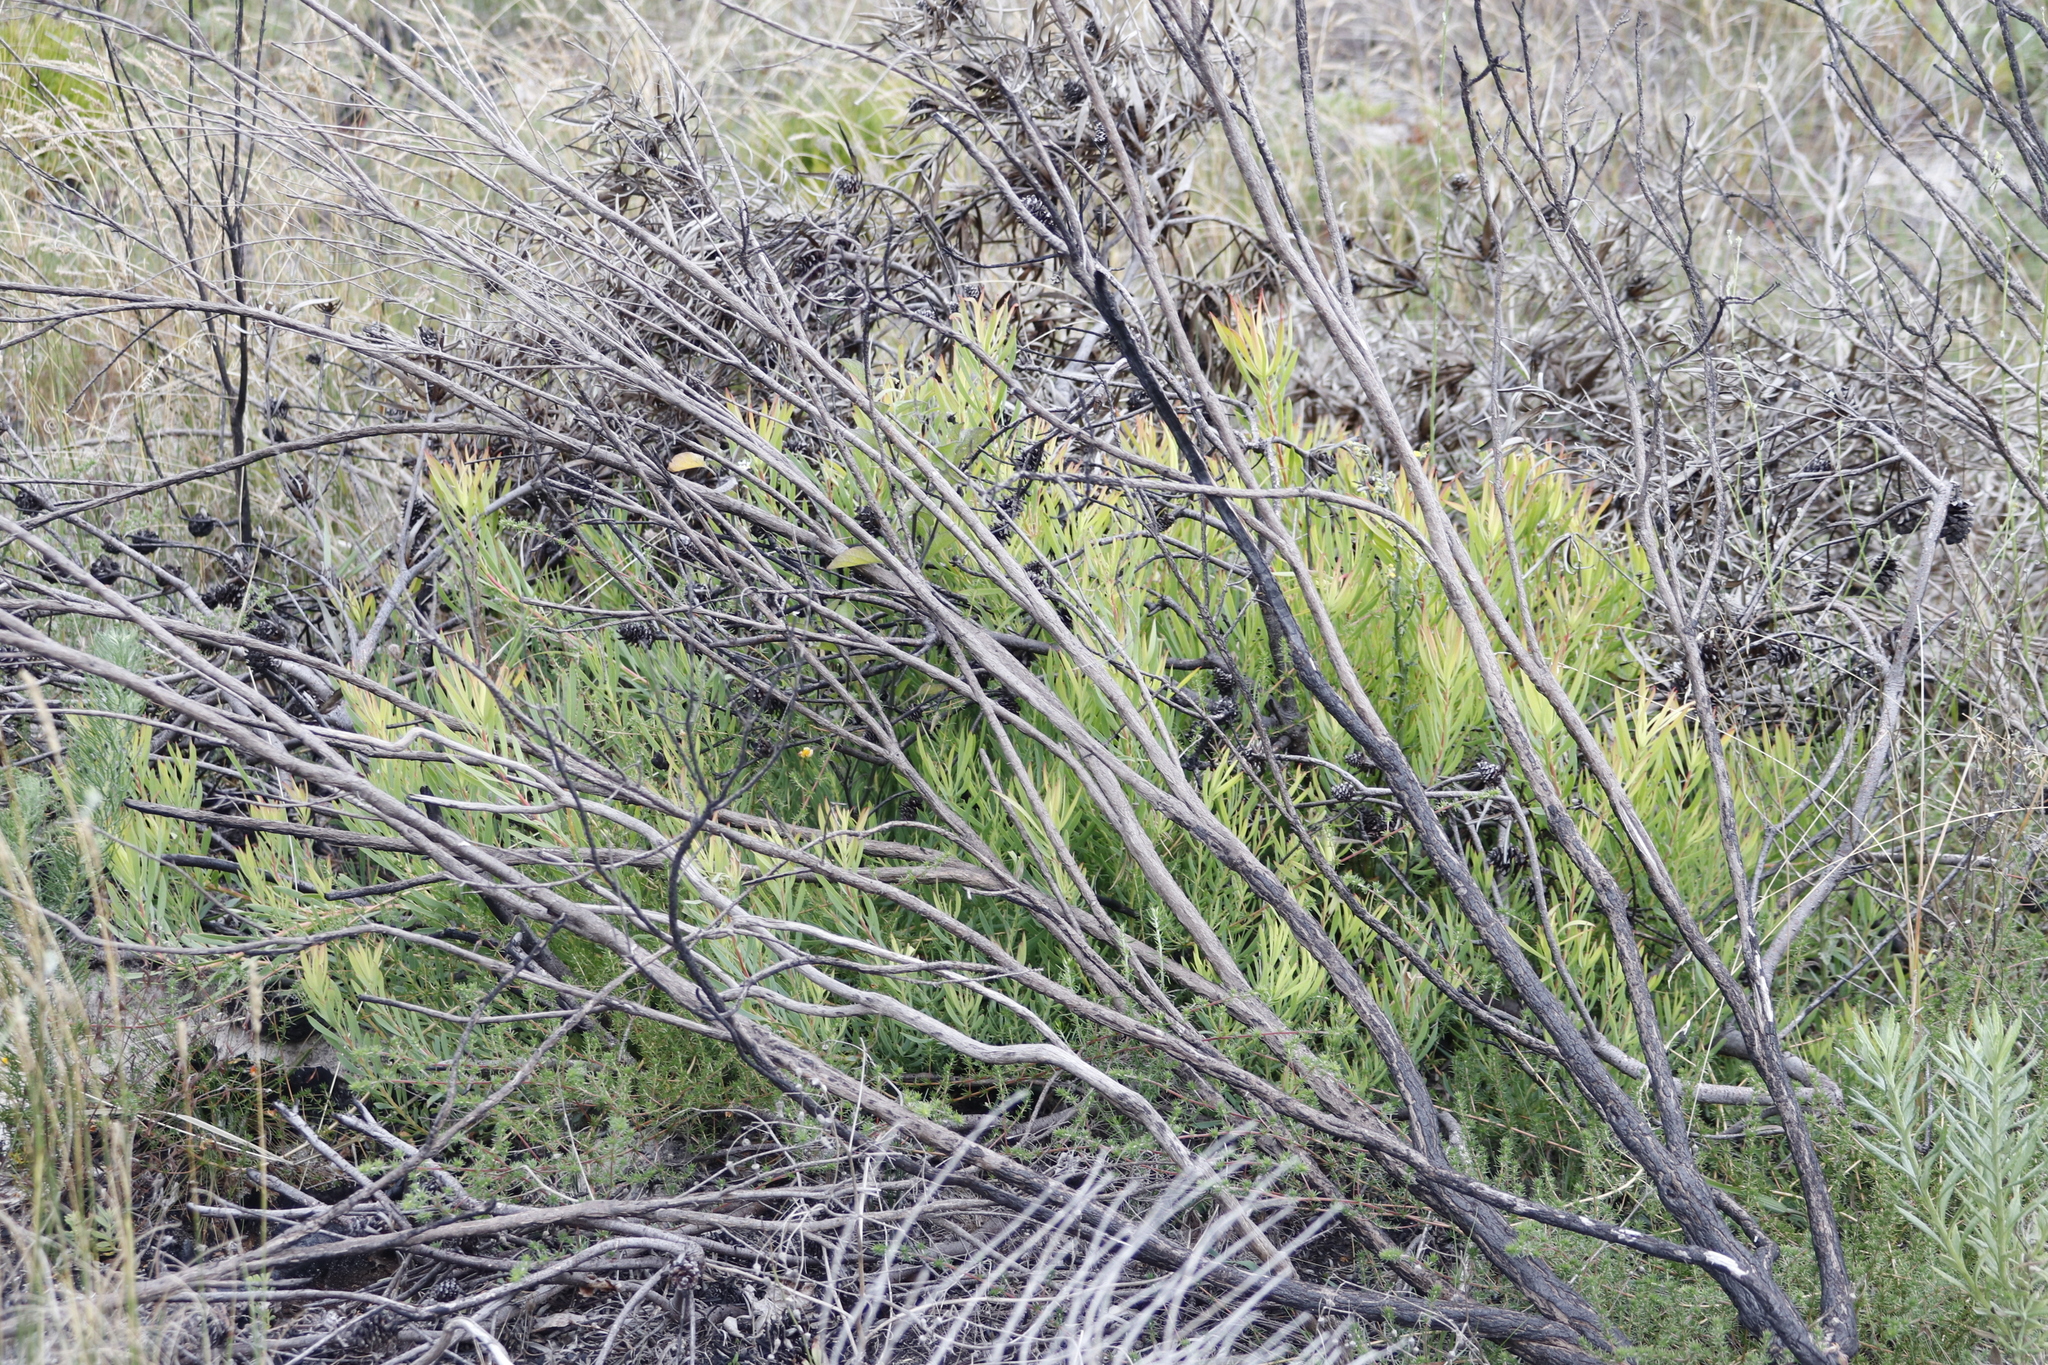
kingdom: Plantae
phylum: Tracheophyta
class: Magnoliopsida
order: Proteales
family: Proteaceae
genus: Leucadendron
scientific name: Leucadendron salignum
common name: Common sunshine conebush
